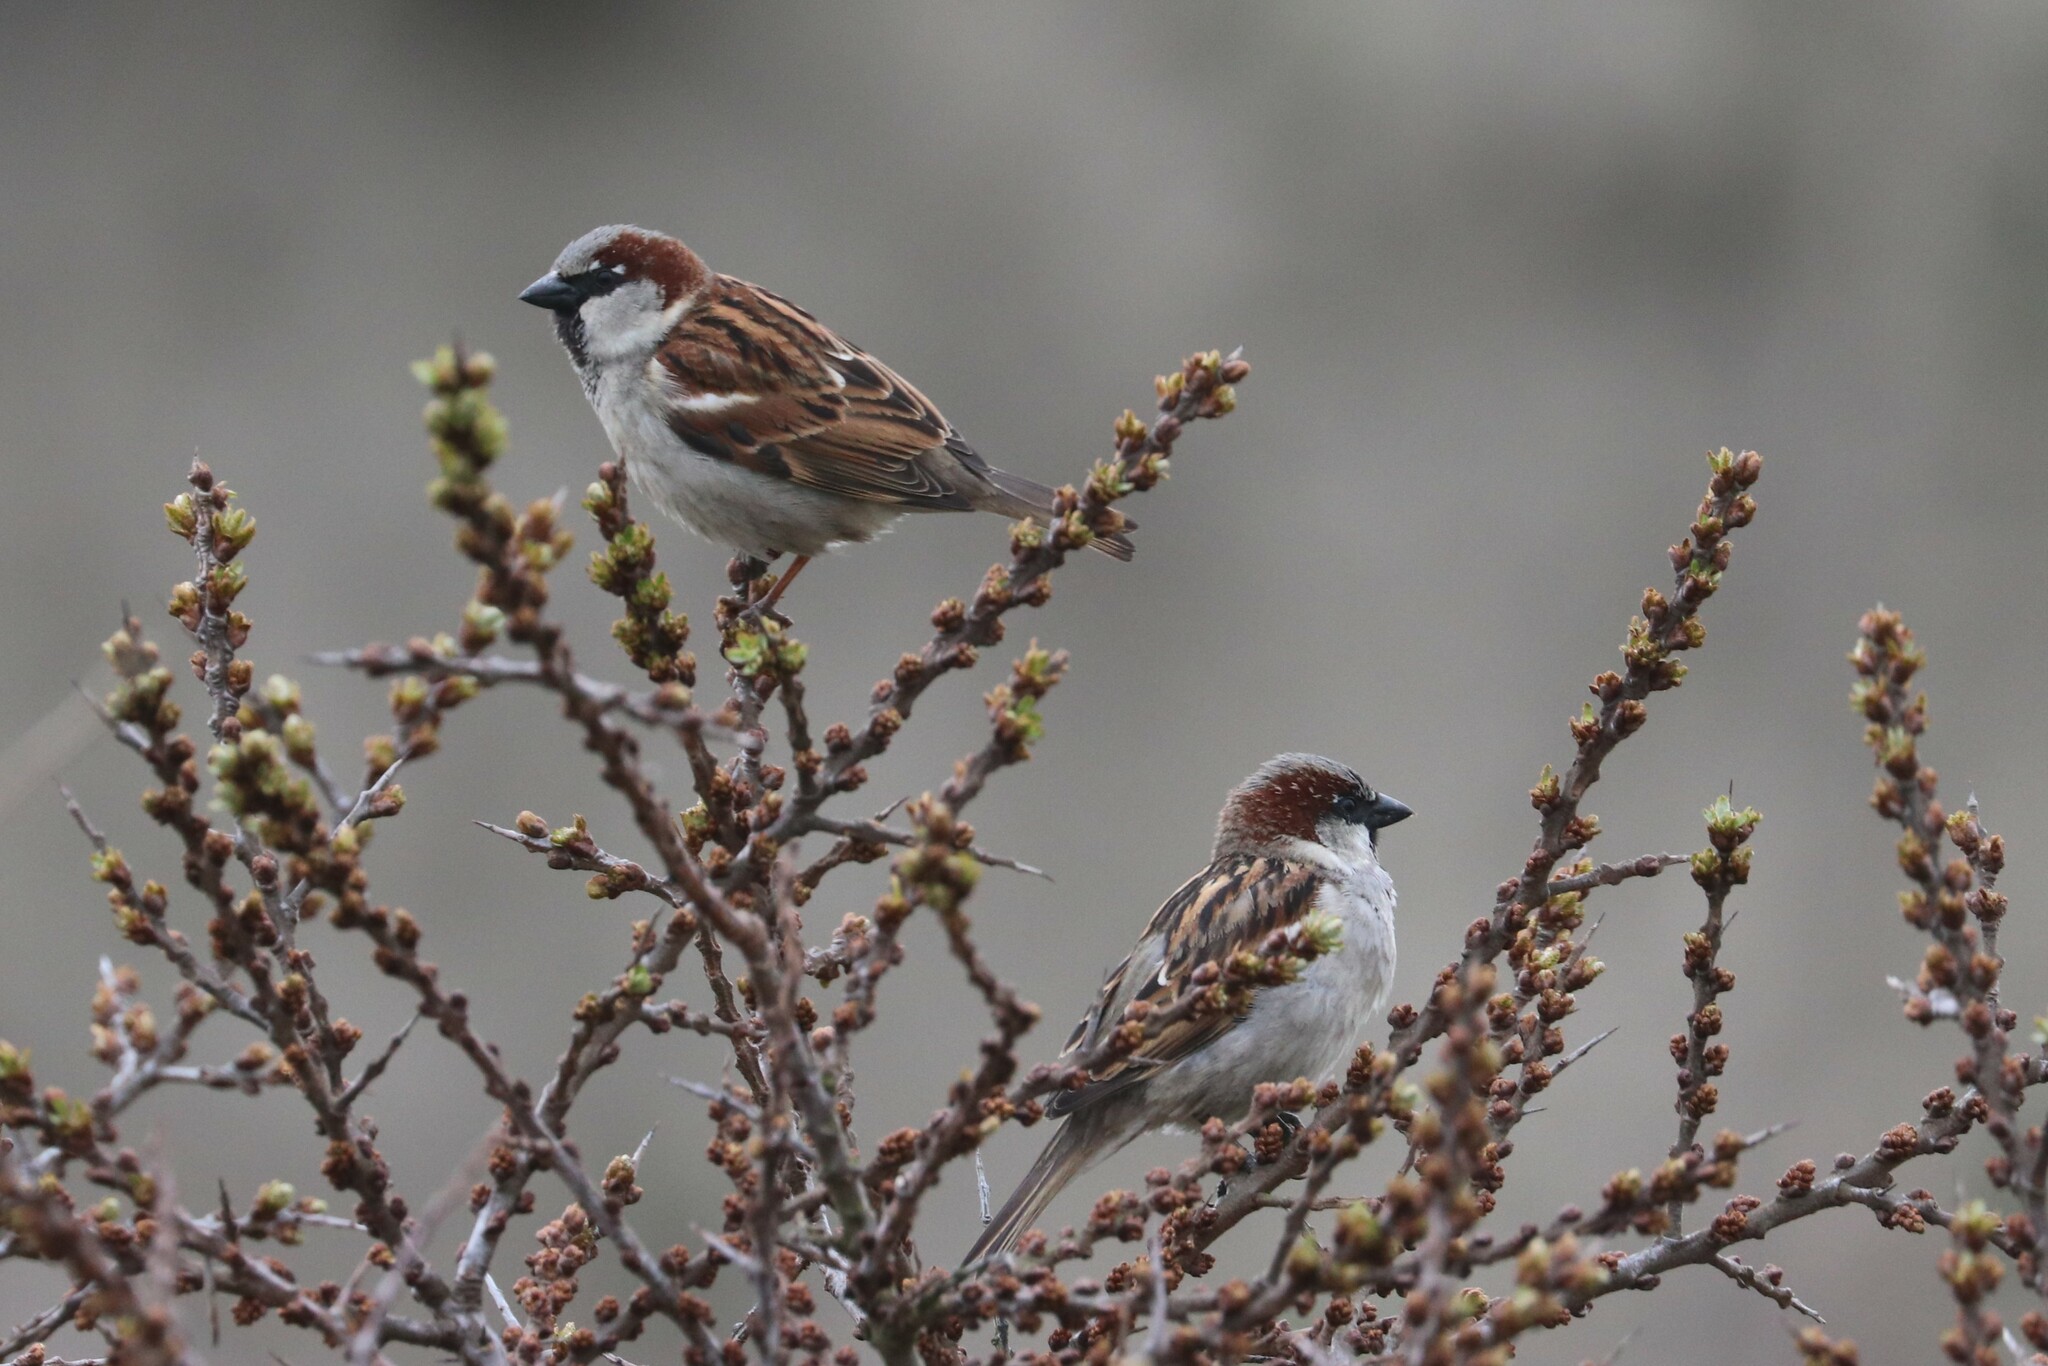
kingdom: Animalia
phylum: Chordata
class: Aves
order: Passeriformes
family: Passeridae
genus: Passer
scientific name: Passer domesticus
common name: House sparrow
